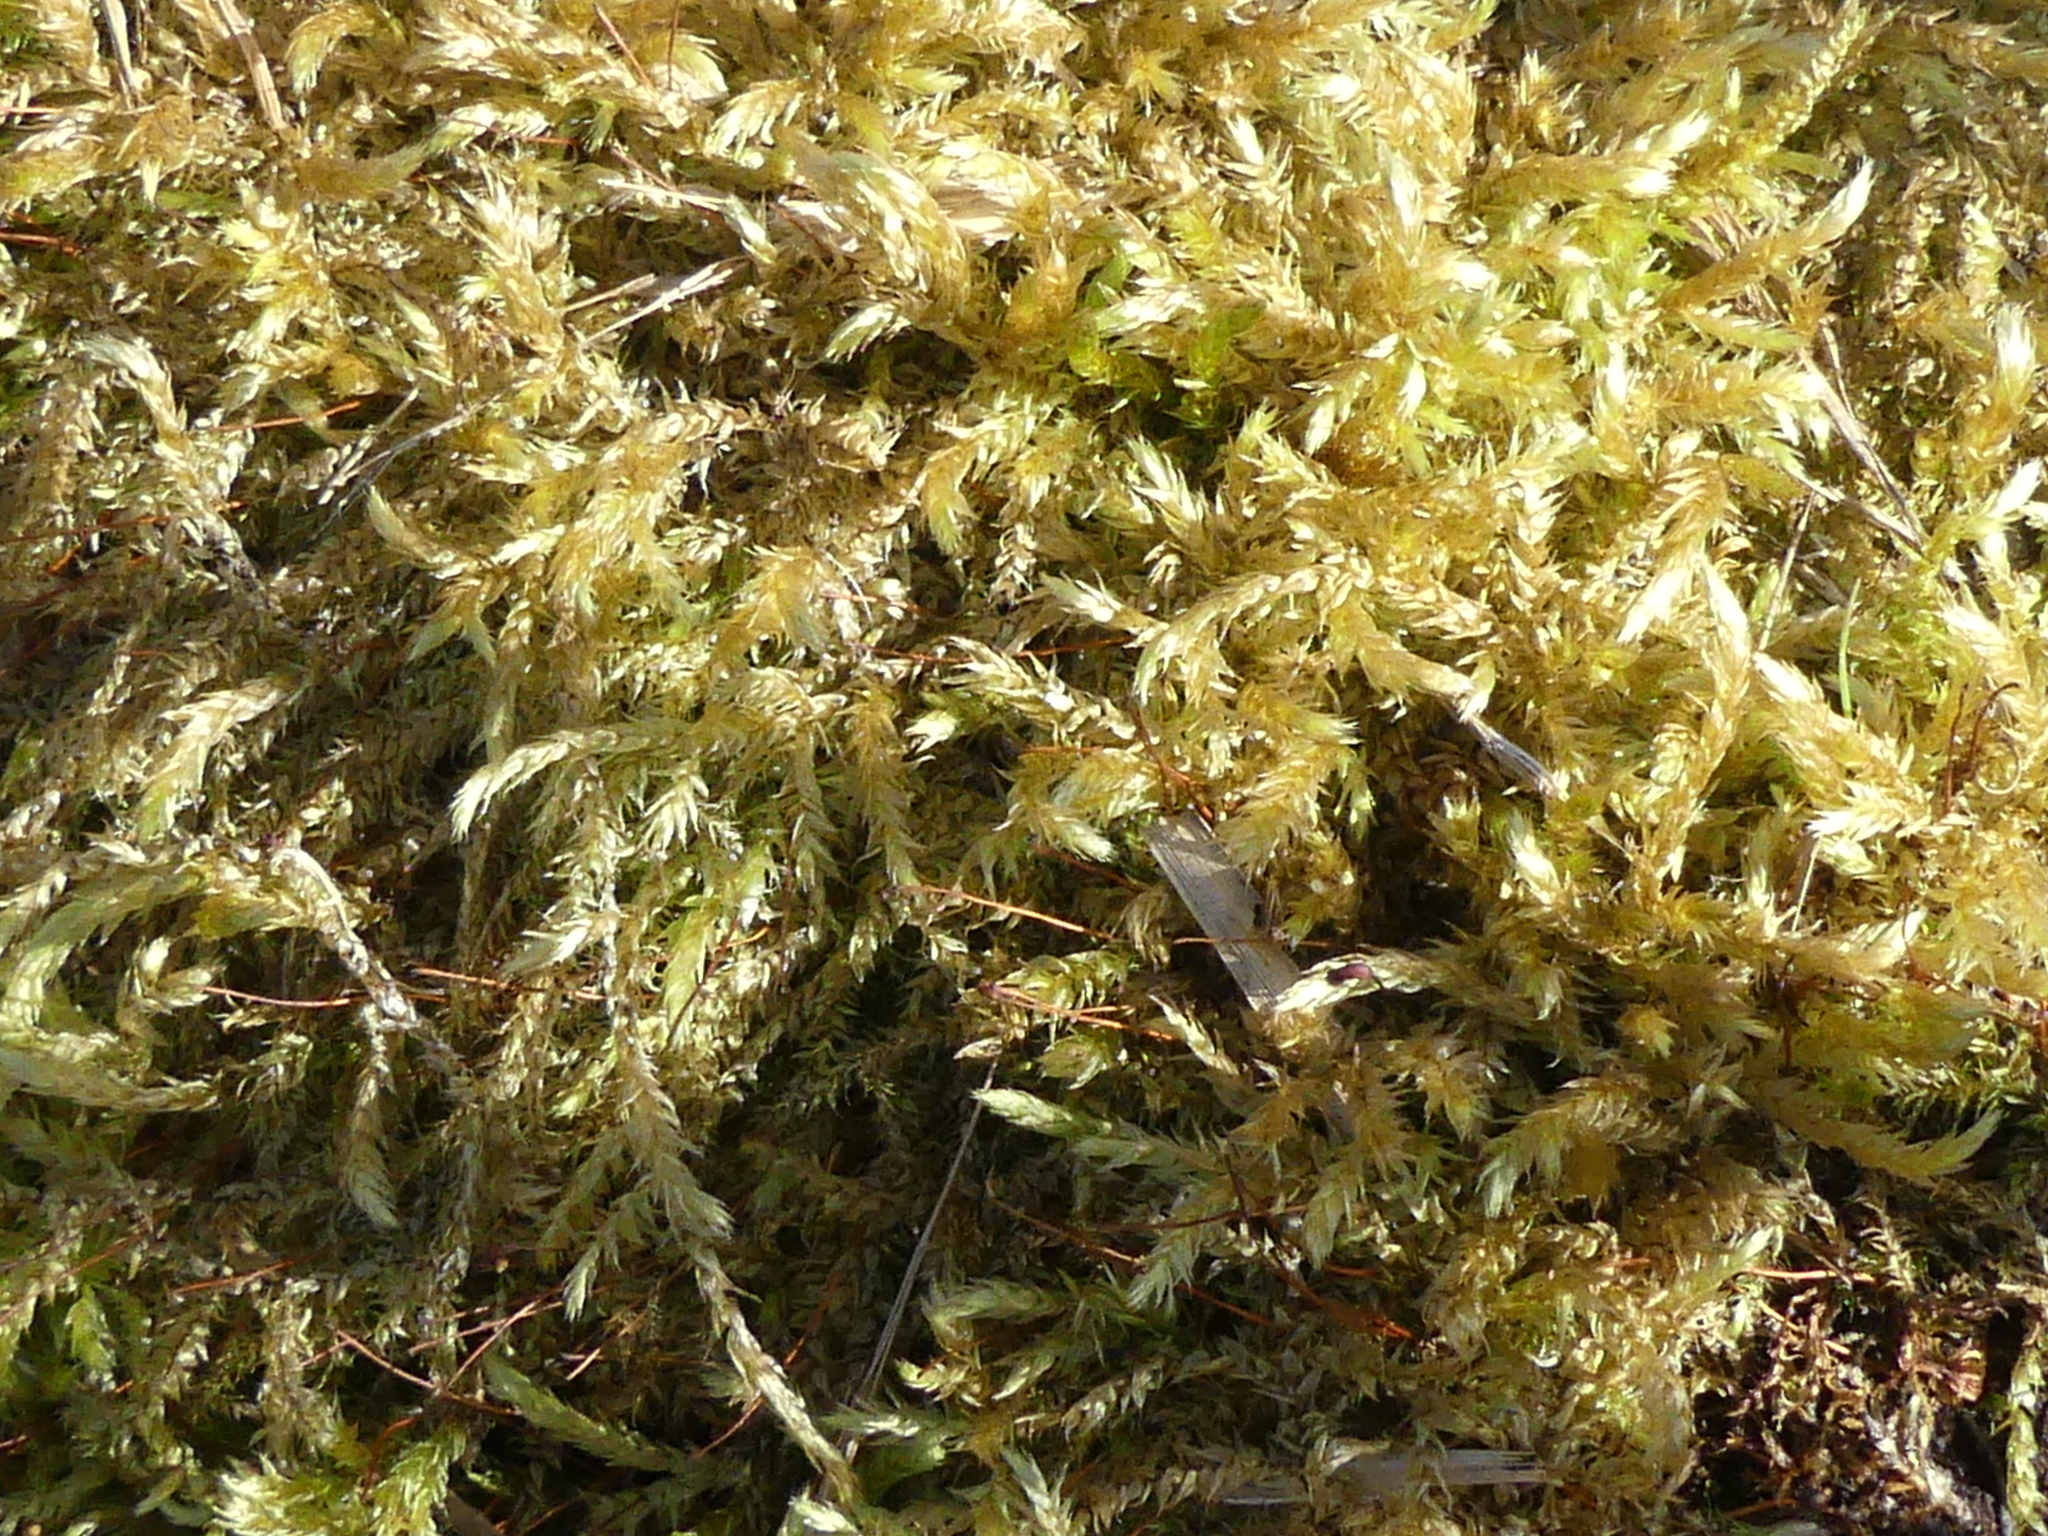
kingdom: Plantae
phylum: Bryophyta
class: Bryopsida
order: Hypnales
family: Brachytheciaceae
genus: Brachythecium
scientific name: Brachythecium rutabulum
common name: Rough-stalked feather-moss
